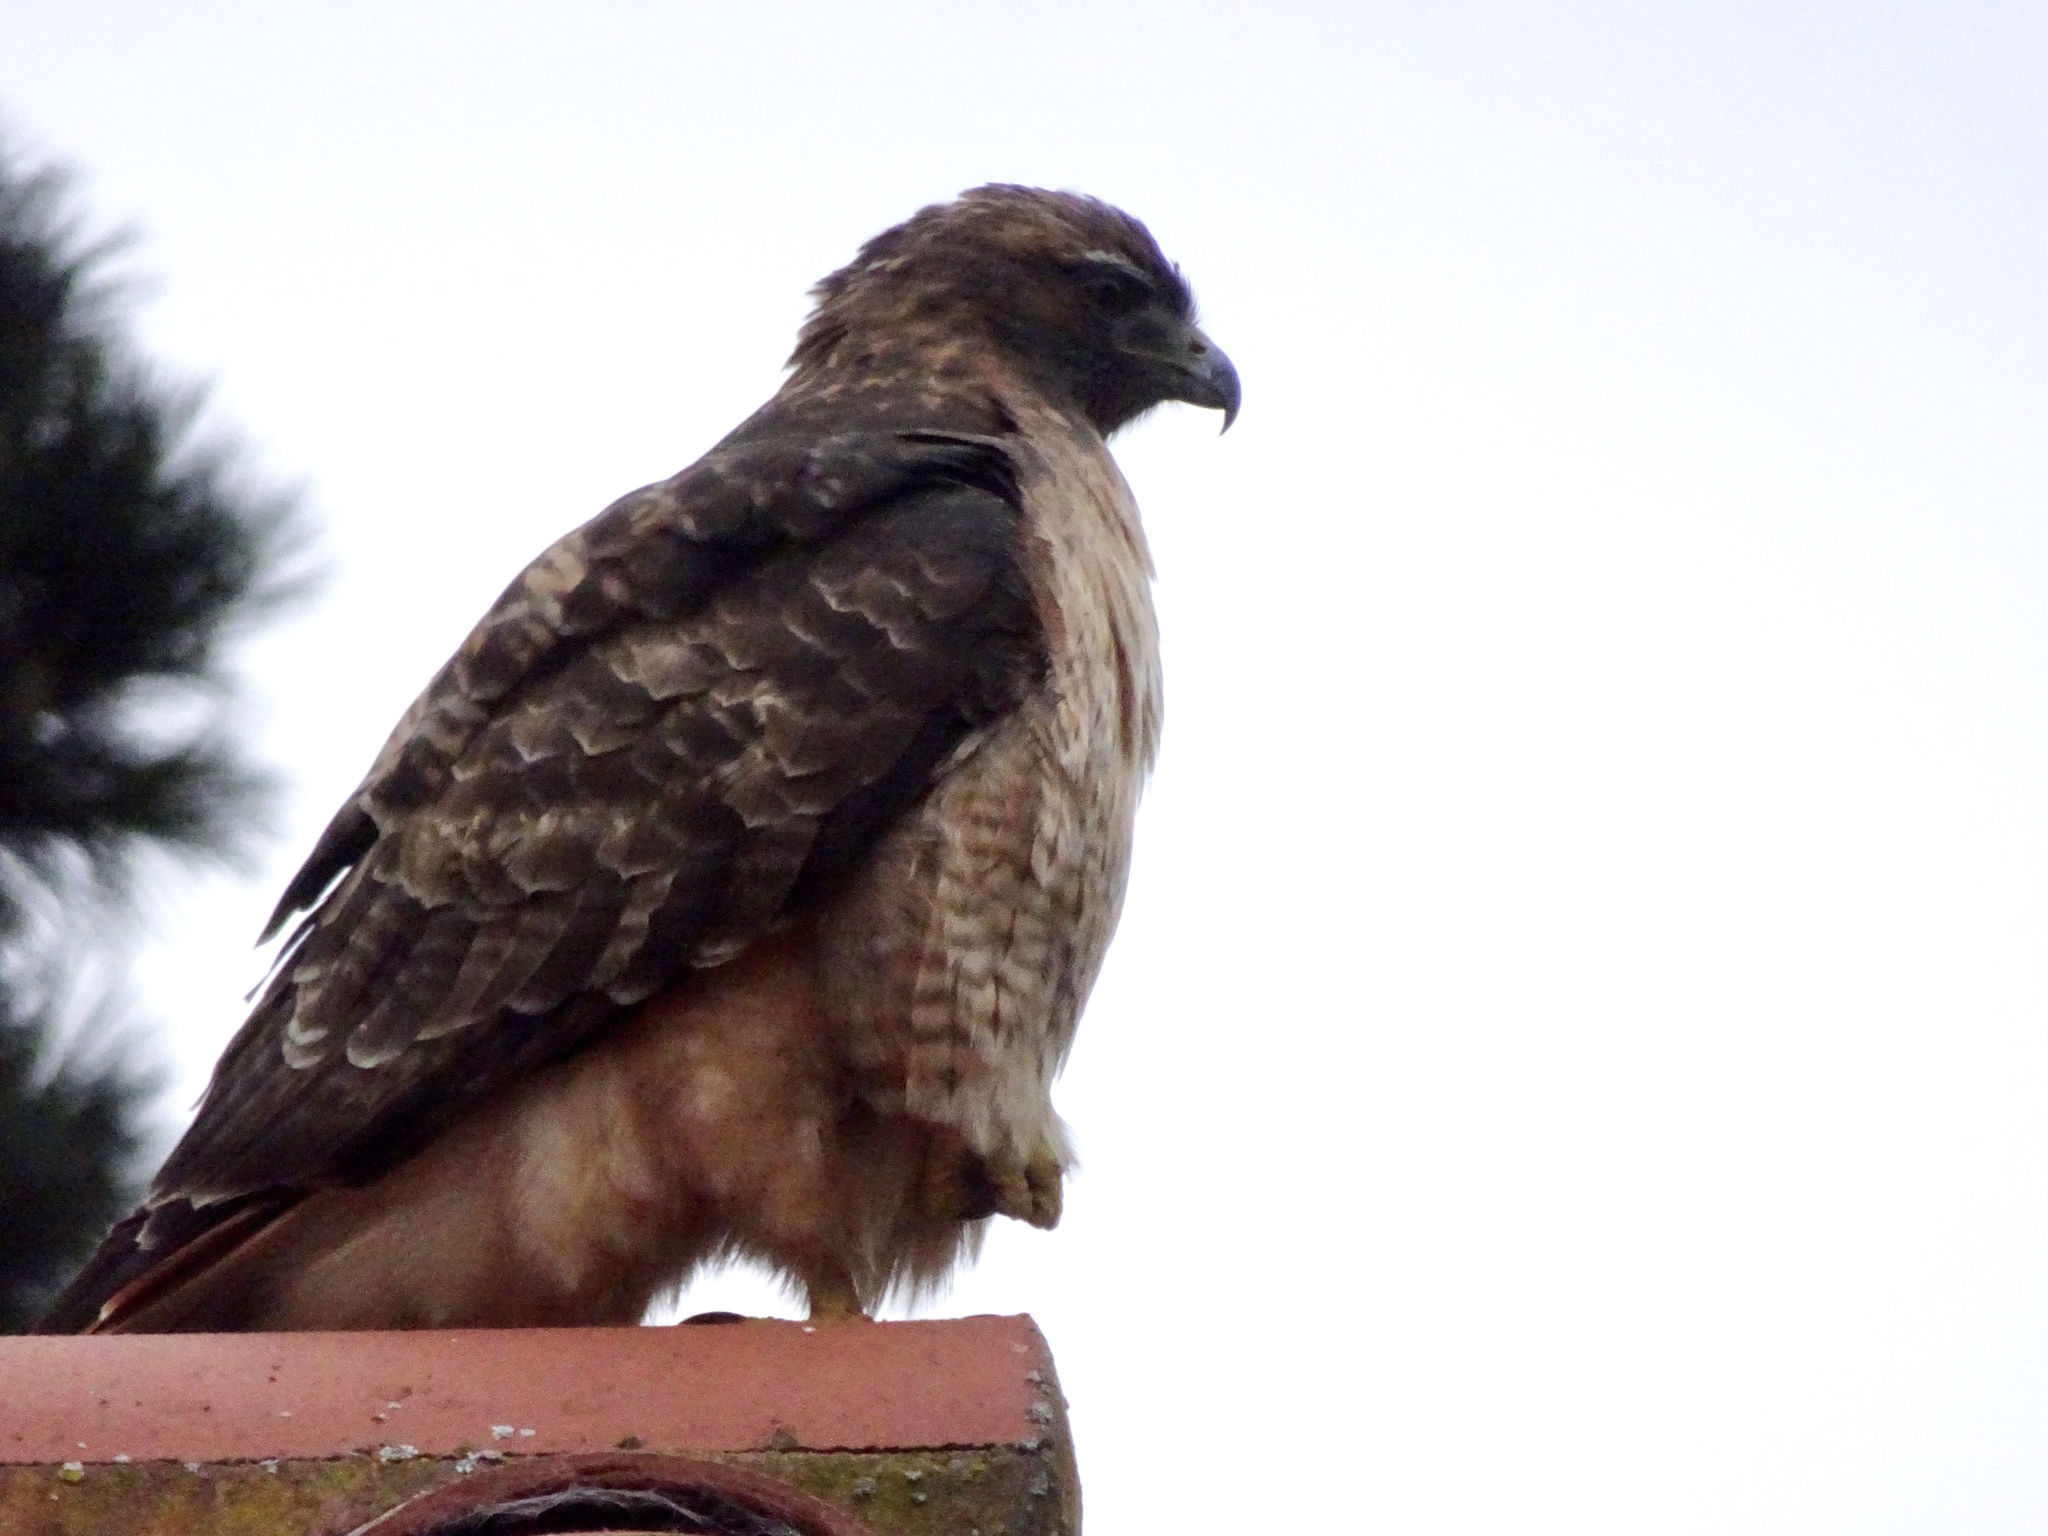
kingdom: Animalia
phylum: Chordata
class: Aves
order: Accipitriformes
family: Accipitridae
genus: Buteo
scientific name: Buteo jamaicensis
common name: Red-tailed hawk
